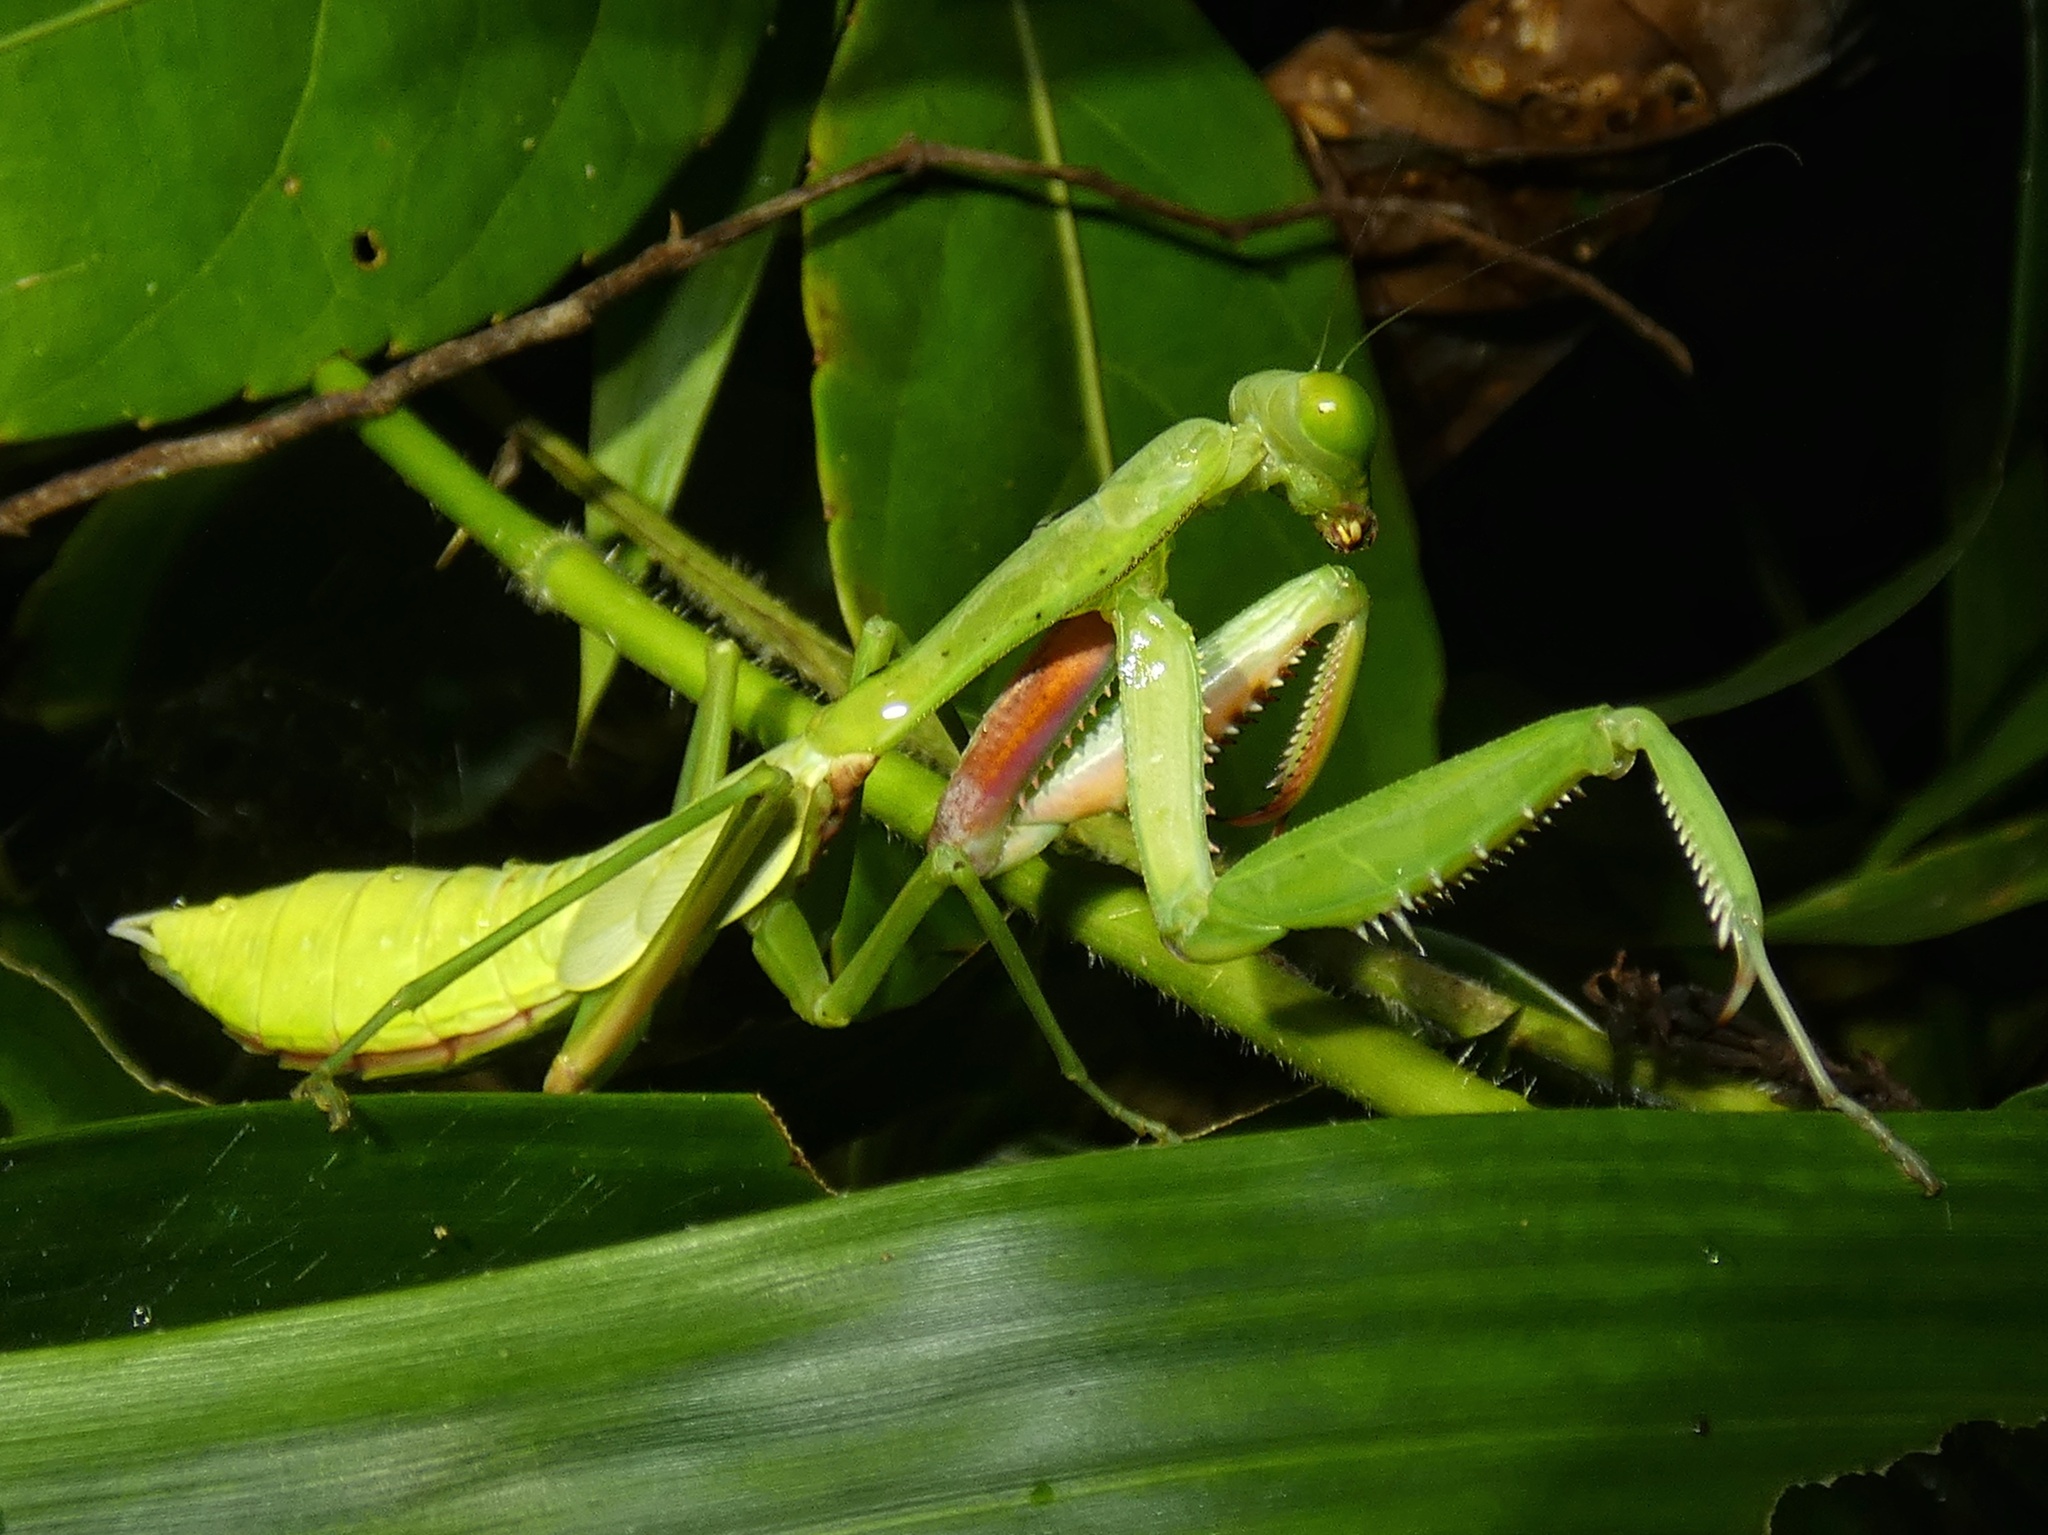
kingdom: Animalia
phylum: Arthropoda
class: Insecta
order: Mantodea
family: Mantidae
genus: Hierodula
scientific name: Hierodula majuscula
